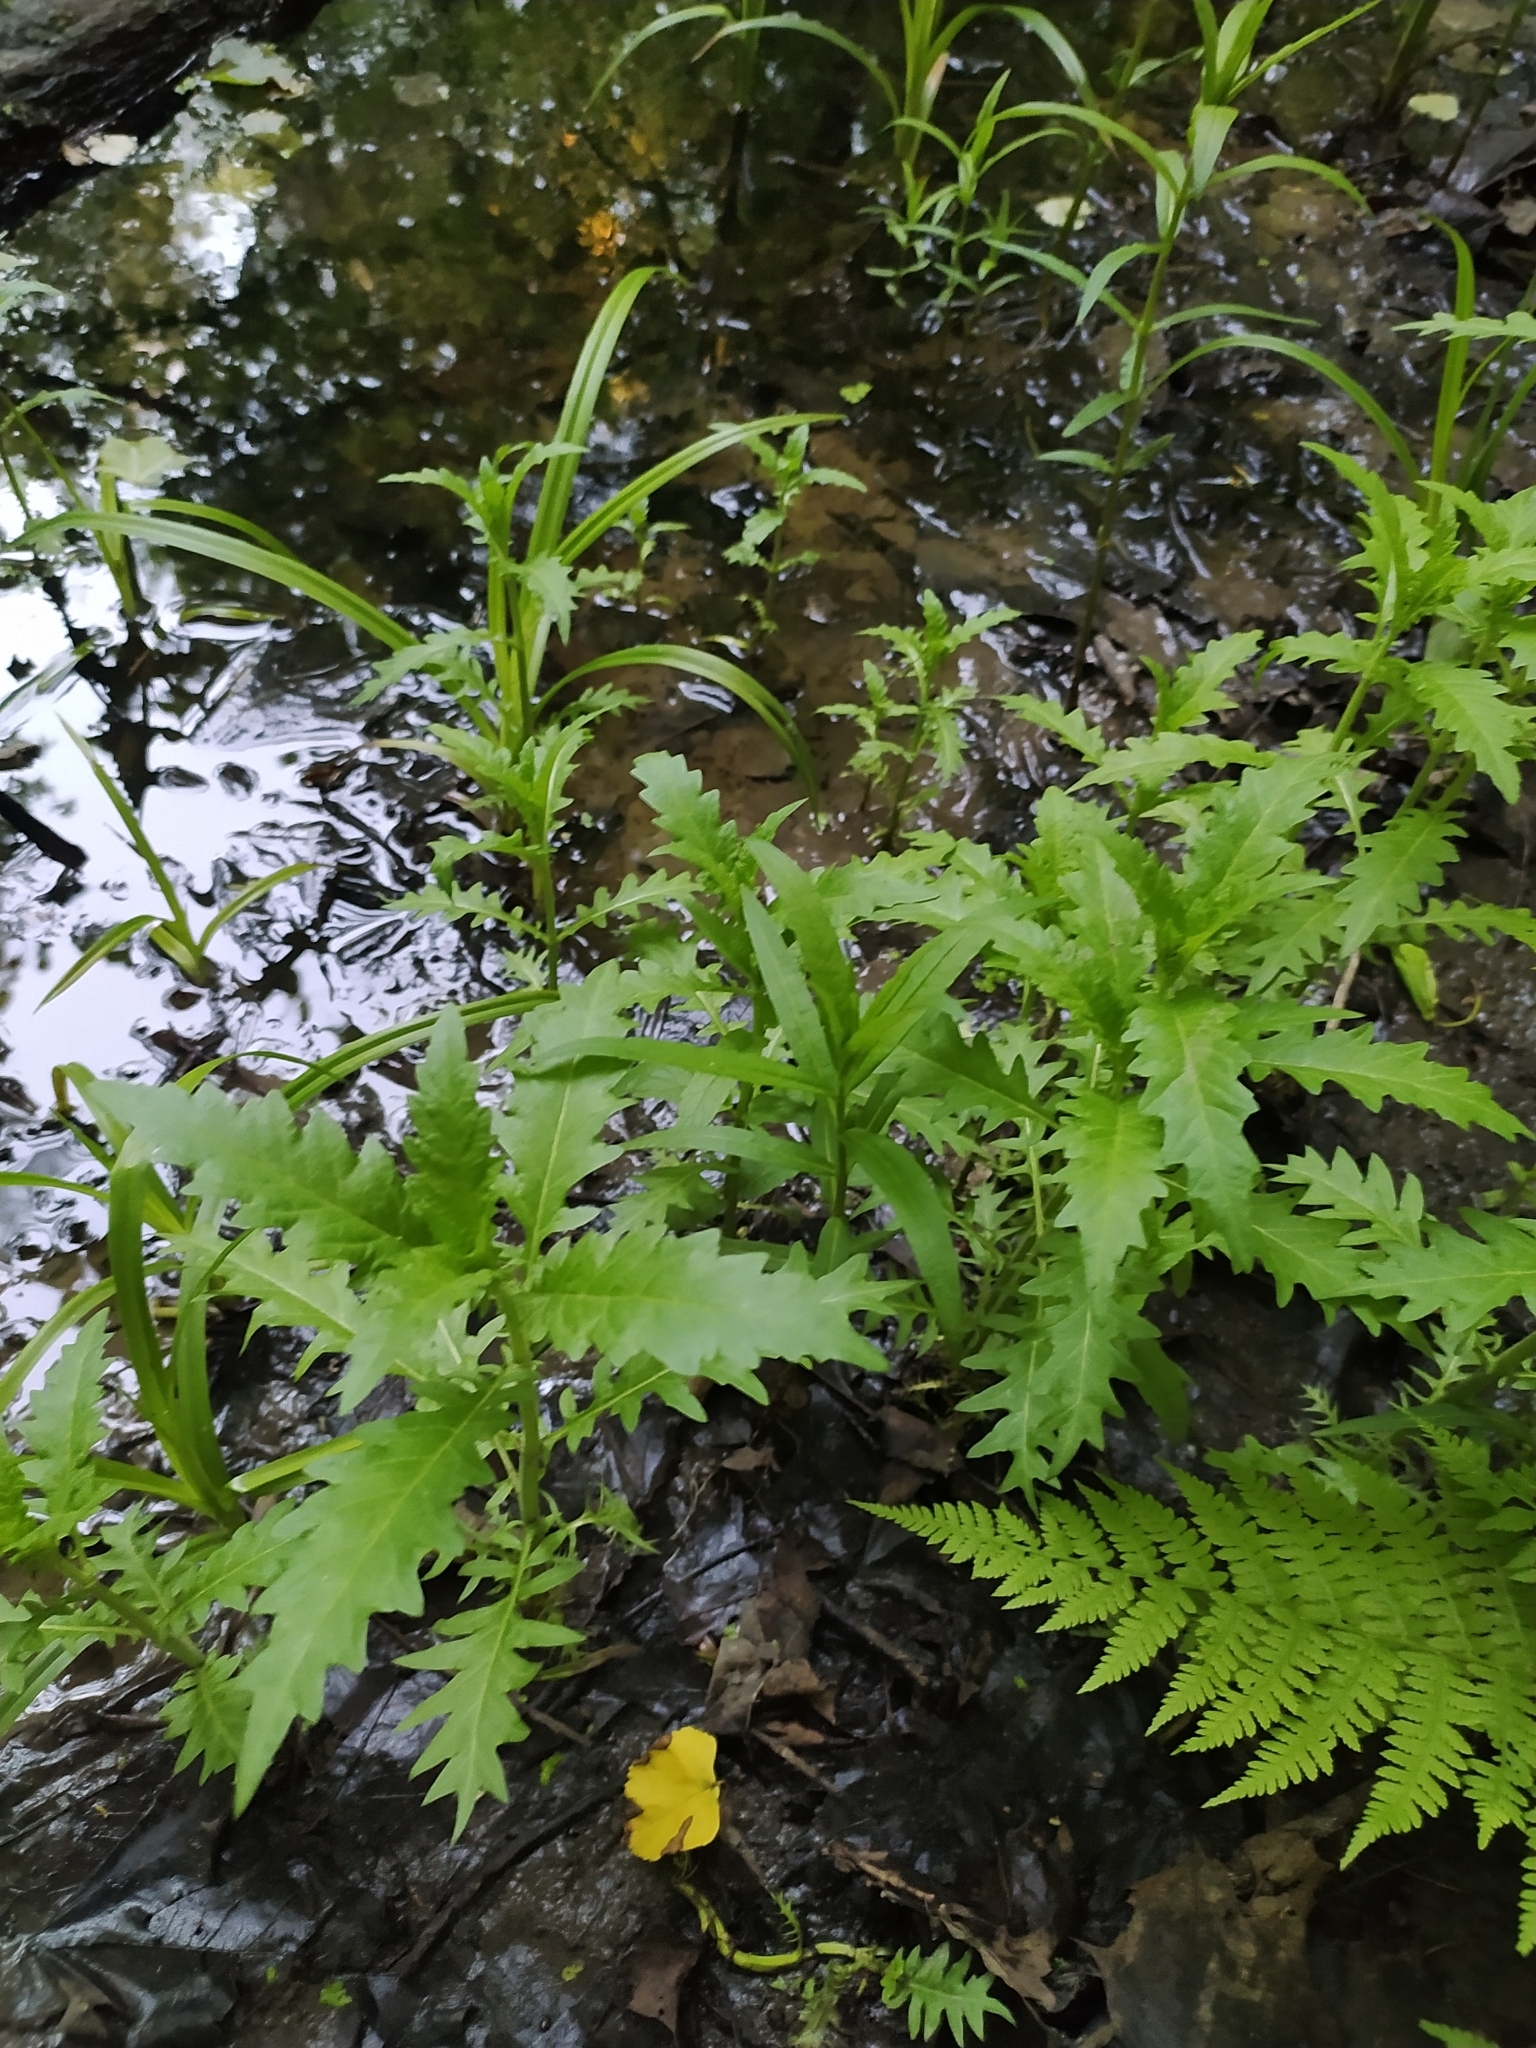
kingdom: Plantae
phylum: Tracheophyta
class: Magnoliopsida
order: Lamiales
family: Lamiaceae
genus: Lycopus
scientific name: Lycopus europaeus
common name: European bugleweed
